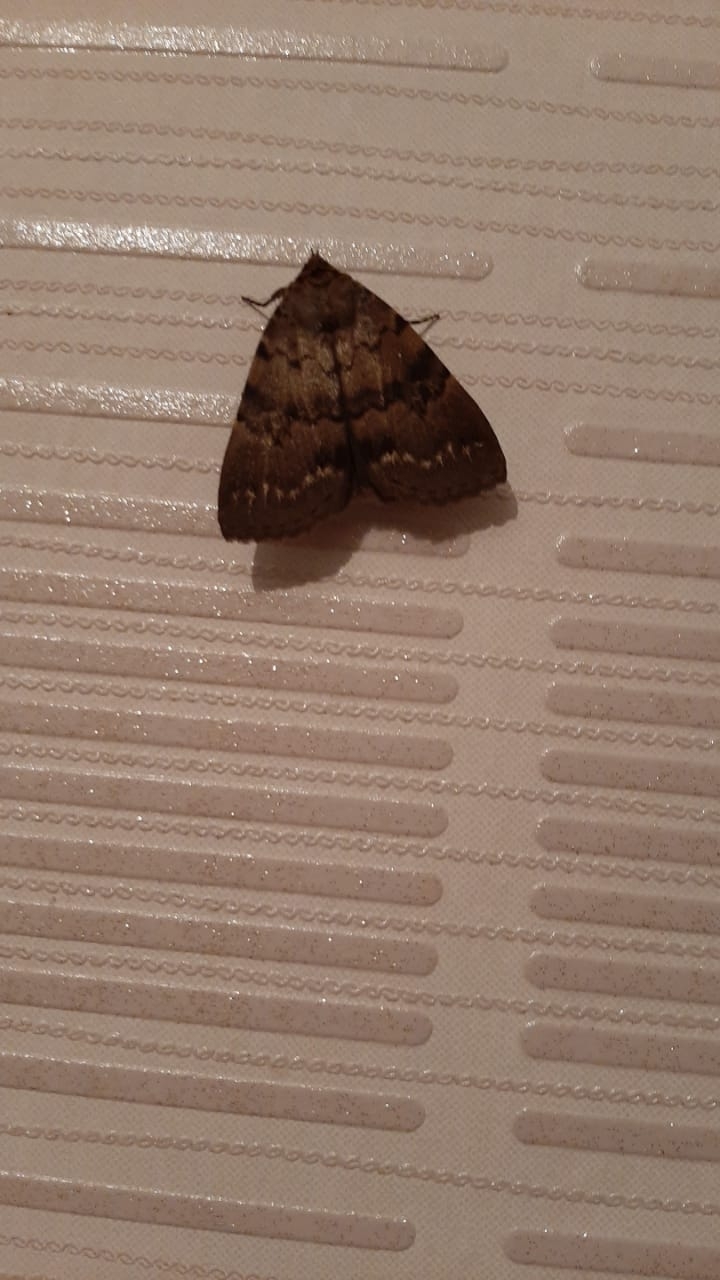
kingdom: Animalia
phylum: Arthropoda
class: Insecta
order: Lepidoptera
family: Erebidae
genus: Apopestes
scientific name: Apopestes spectrum
